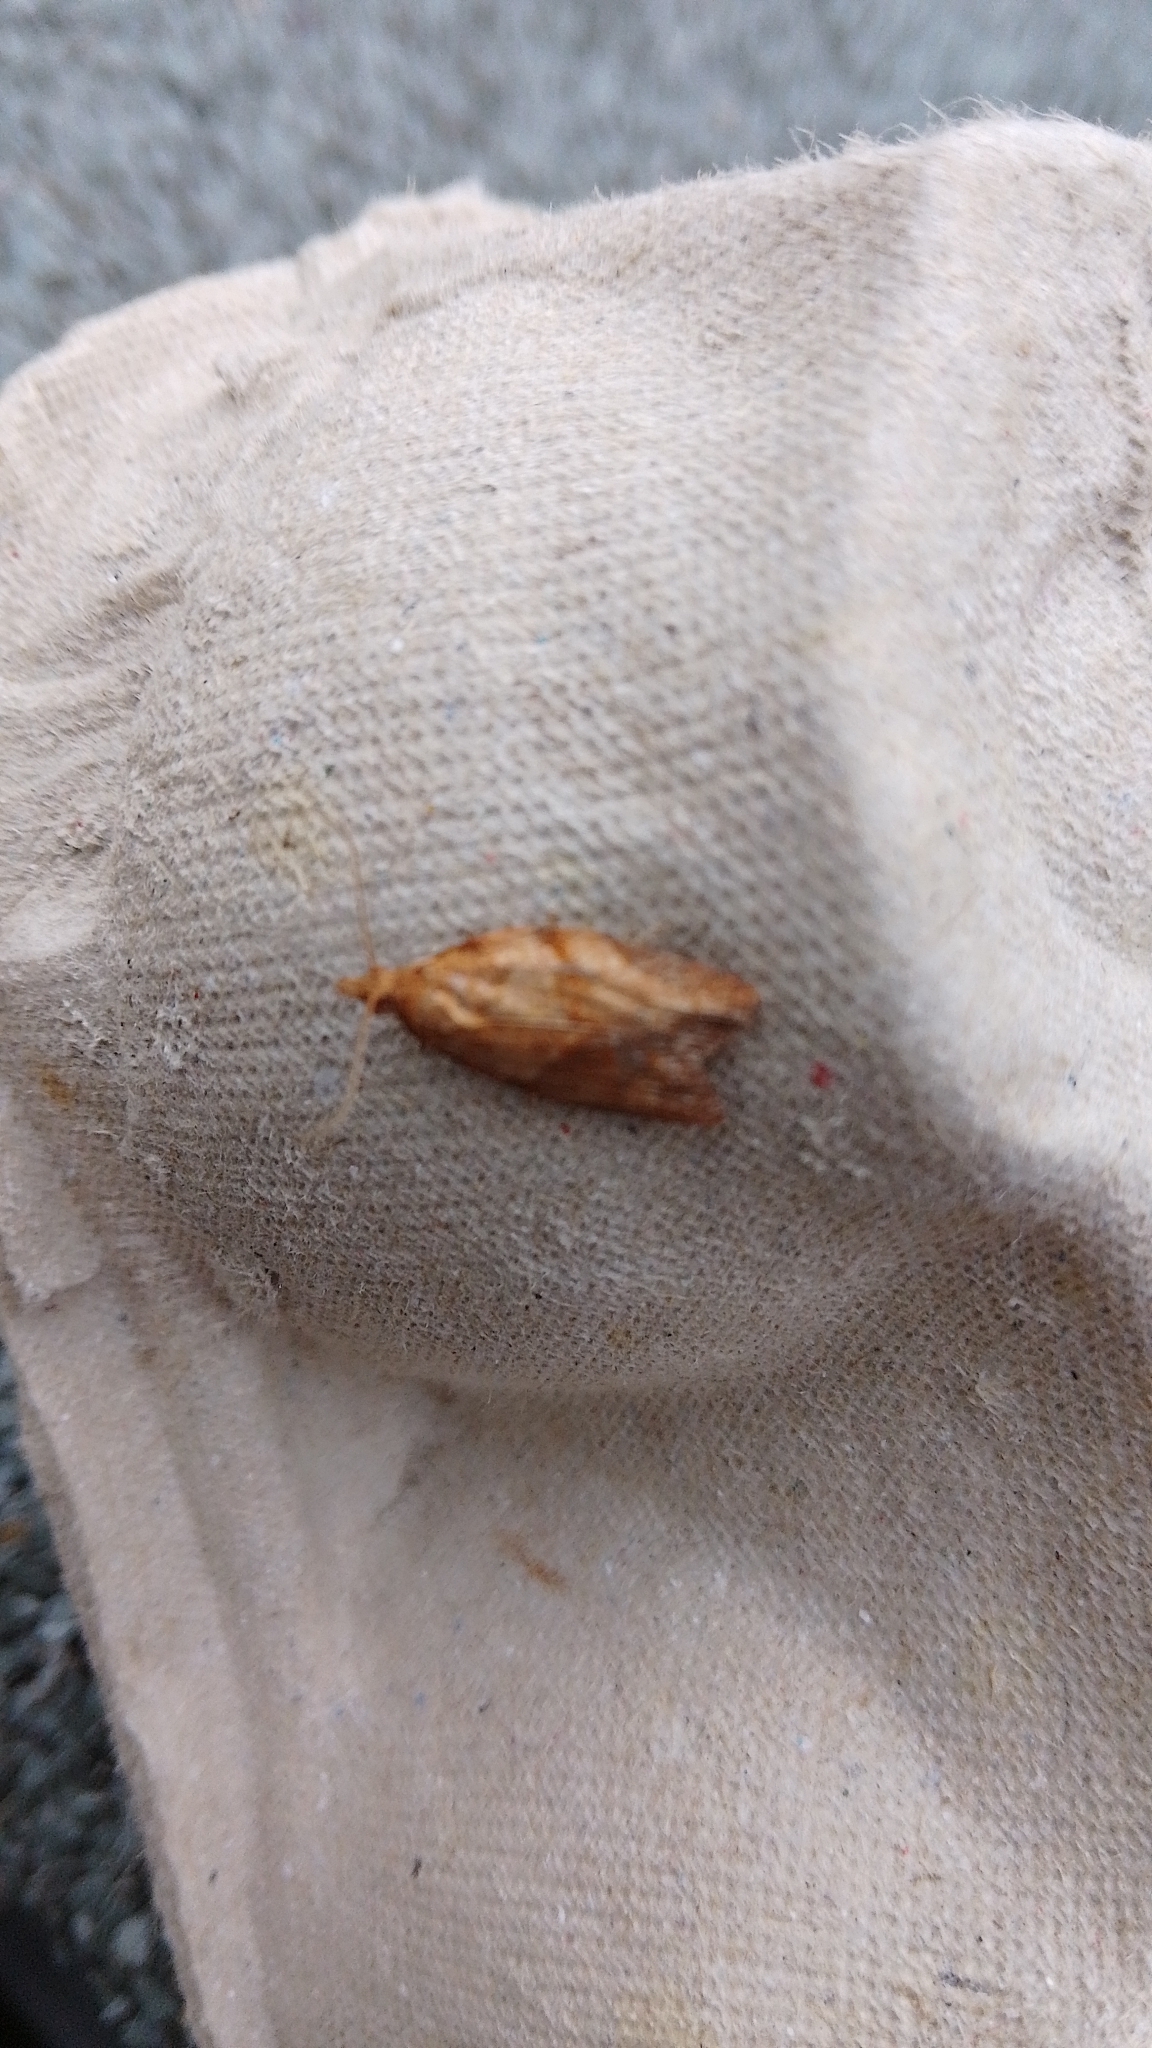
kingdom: Animalia
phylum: Arthropoda
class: Insecta
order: Lepidoptera
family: Tortricidae
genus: Epiphyas
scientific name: Epiphyas postvittana
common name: Light brown apple moth
